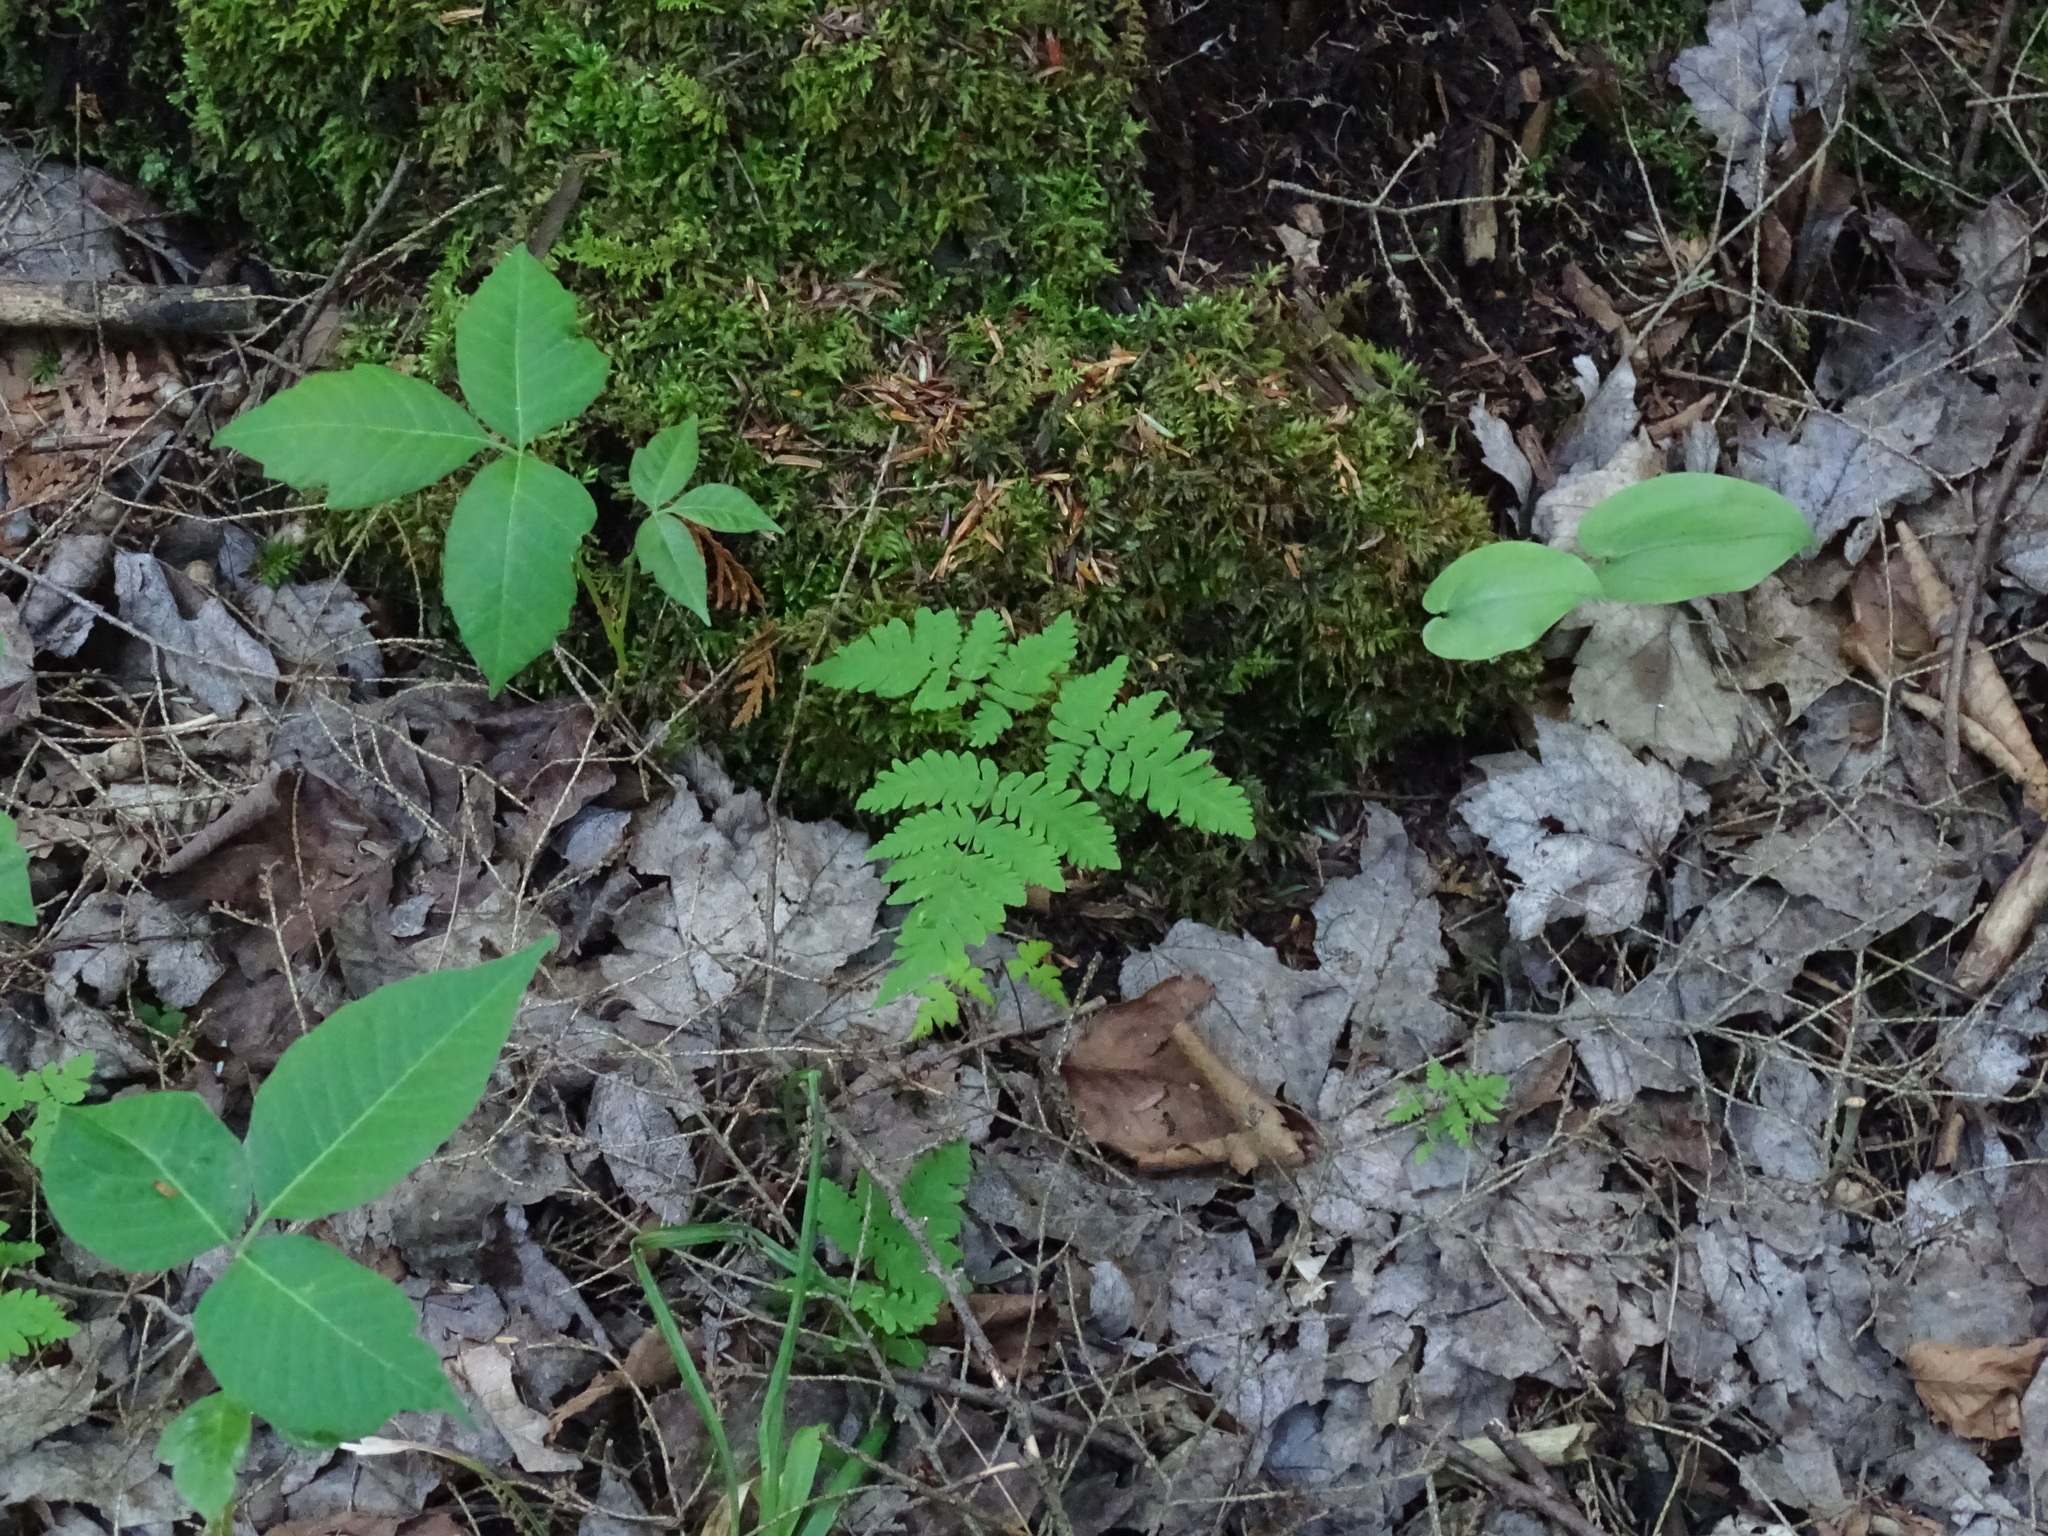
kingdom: Plantae
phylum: Tracheophyta
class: Polypodiopsida
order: Polypodiales
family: Cystopteridaceae
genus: Gymnocarpium
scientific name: Gymnocarpium dryopteris
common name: Oak fern
